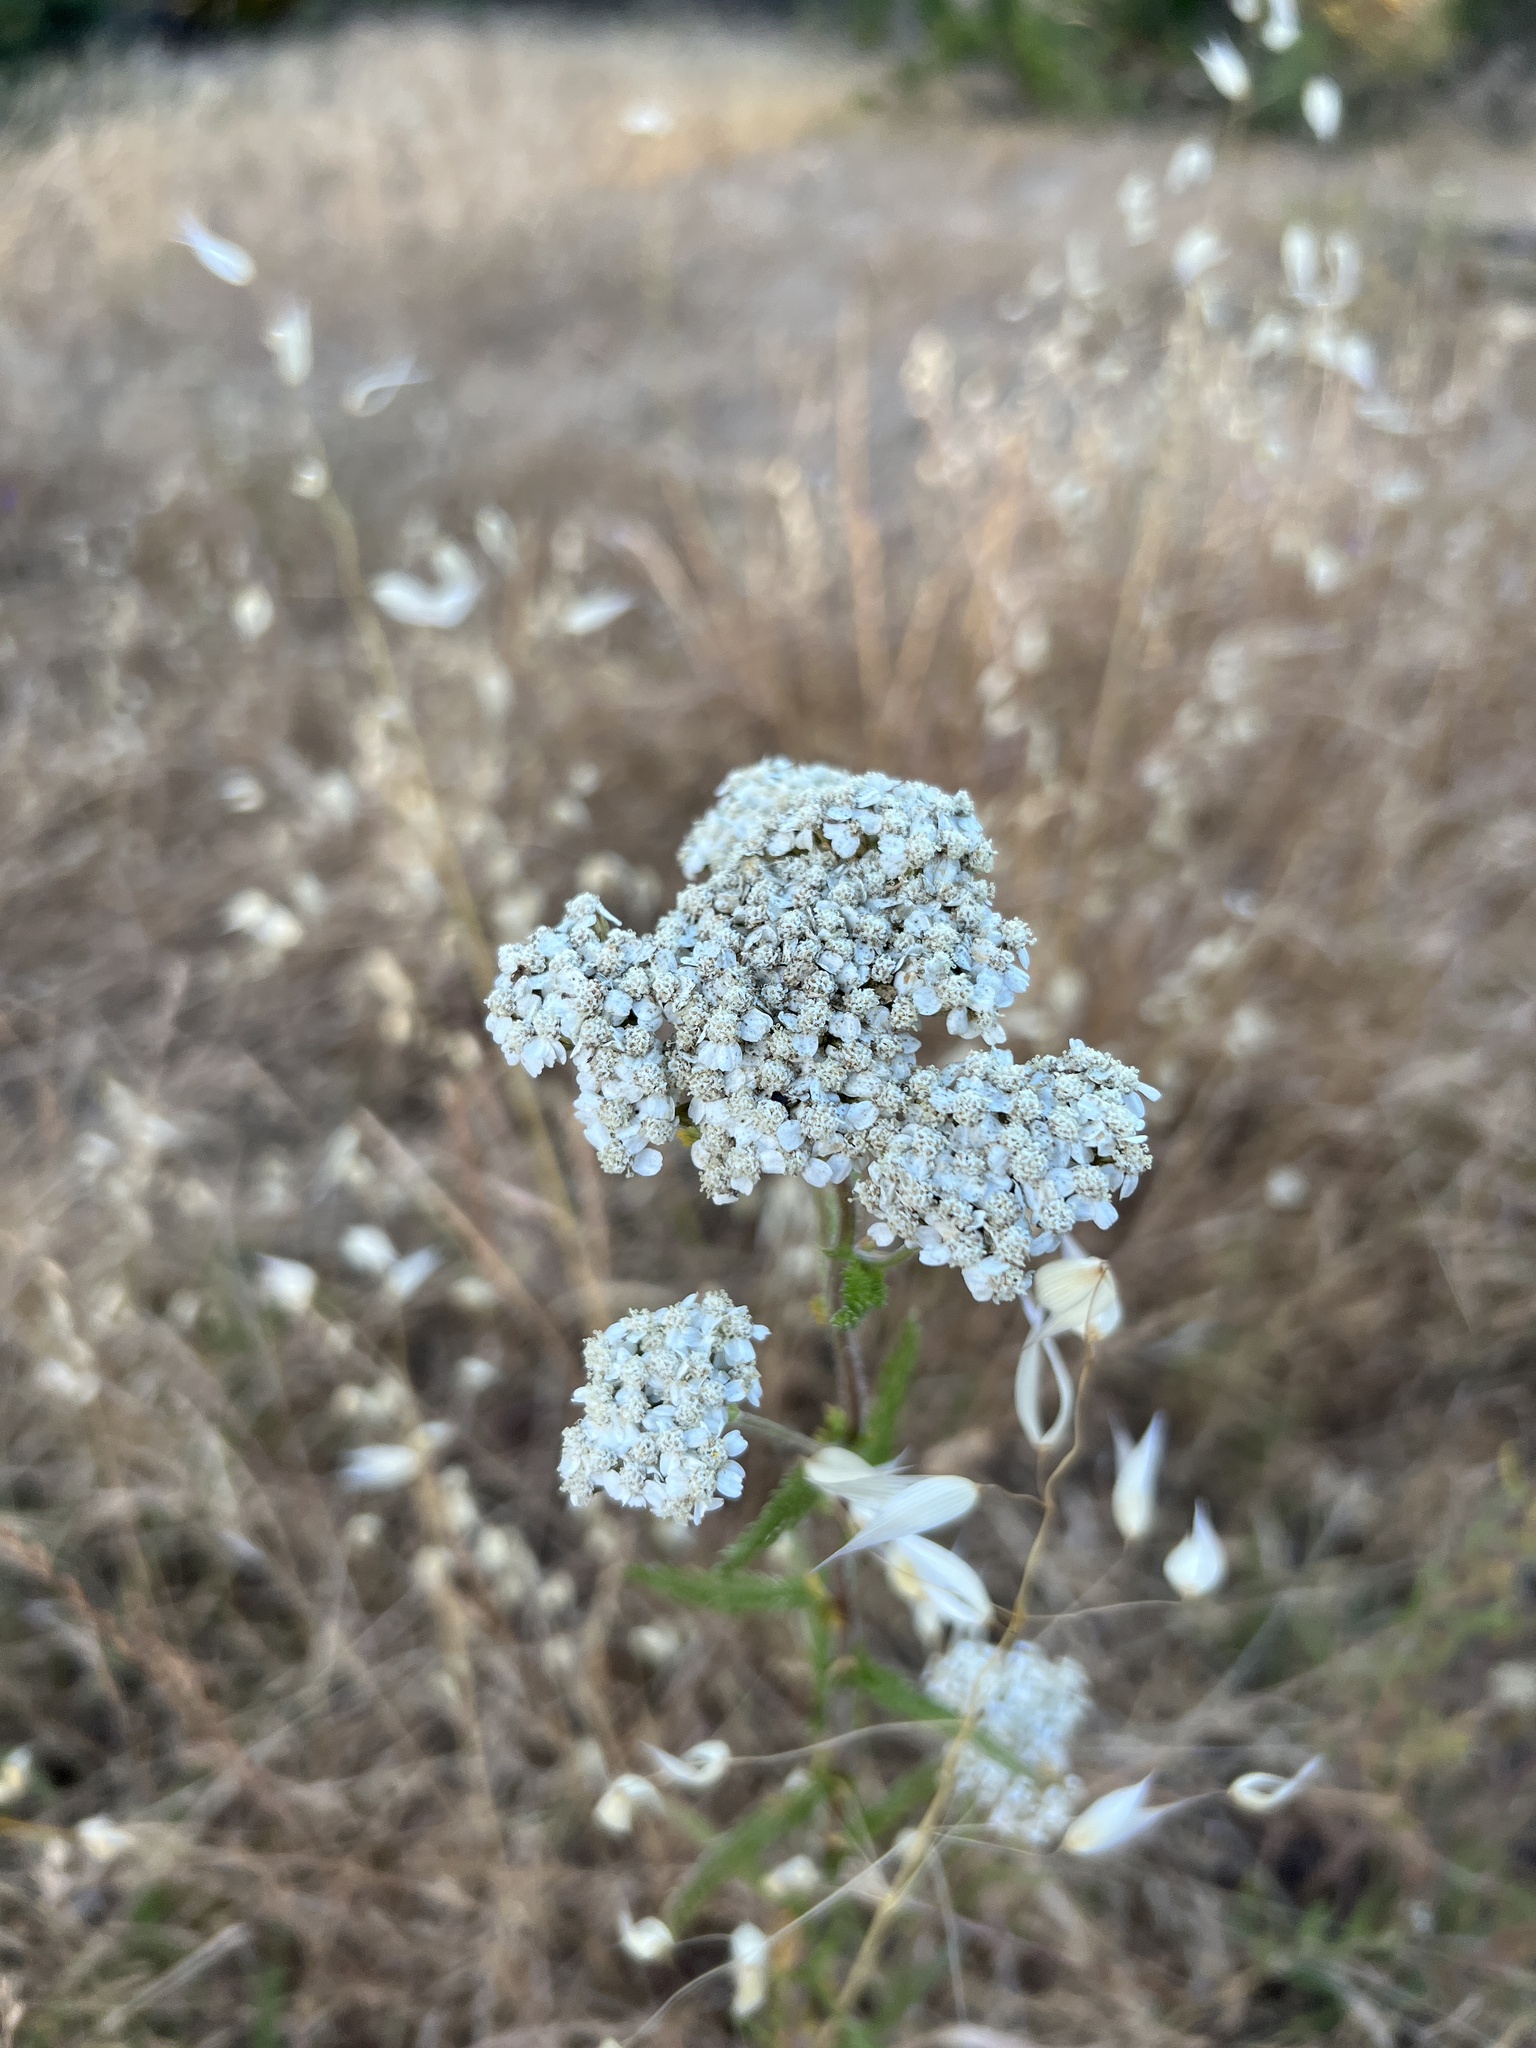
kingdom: Plantae
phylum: Tracheophyta
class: Magnoliopsida
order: Asterales
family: Asteraceae
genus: Achillea
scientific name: Achillea millefolium
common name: Yarrow
